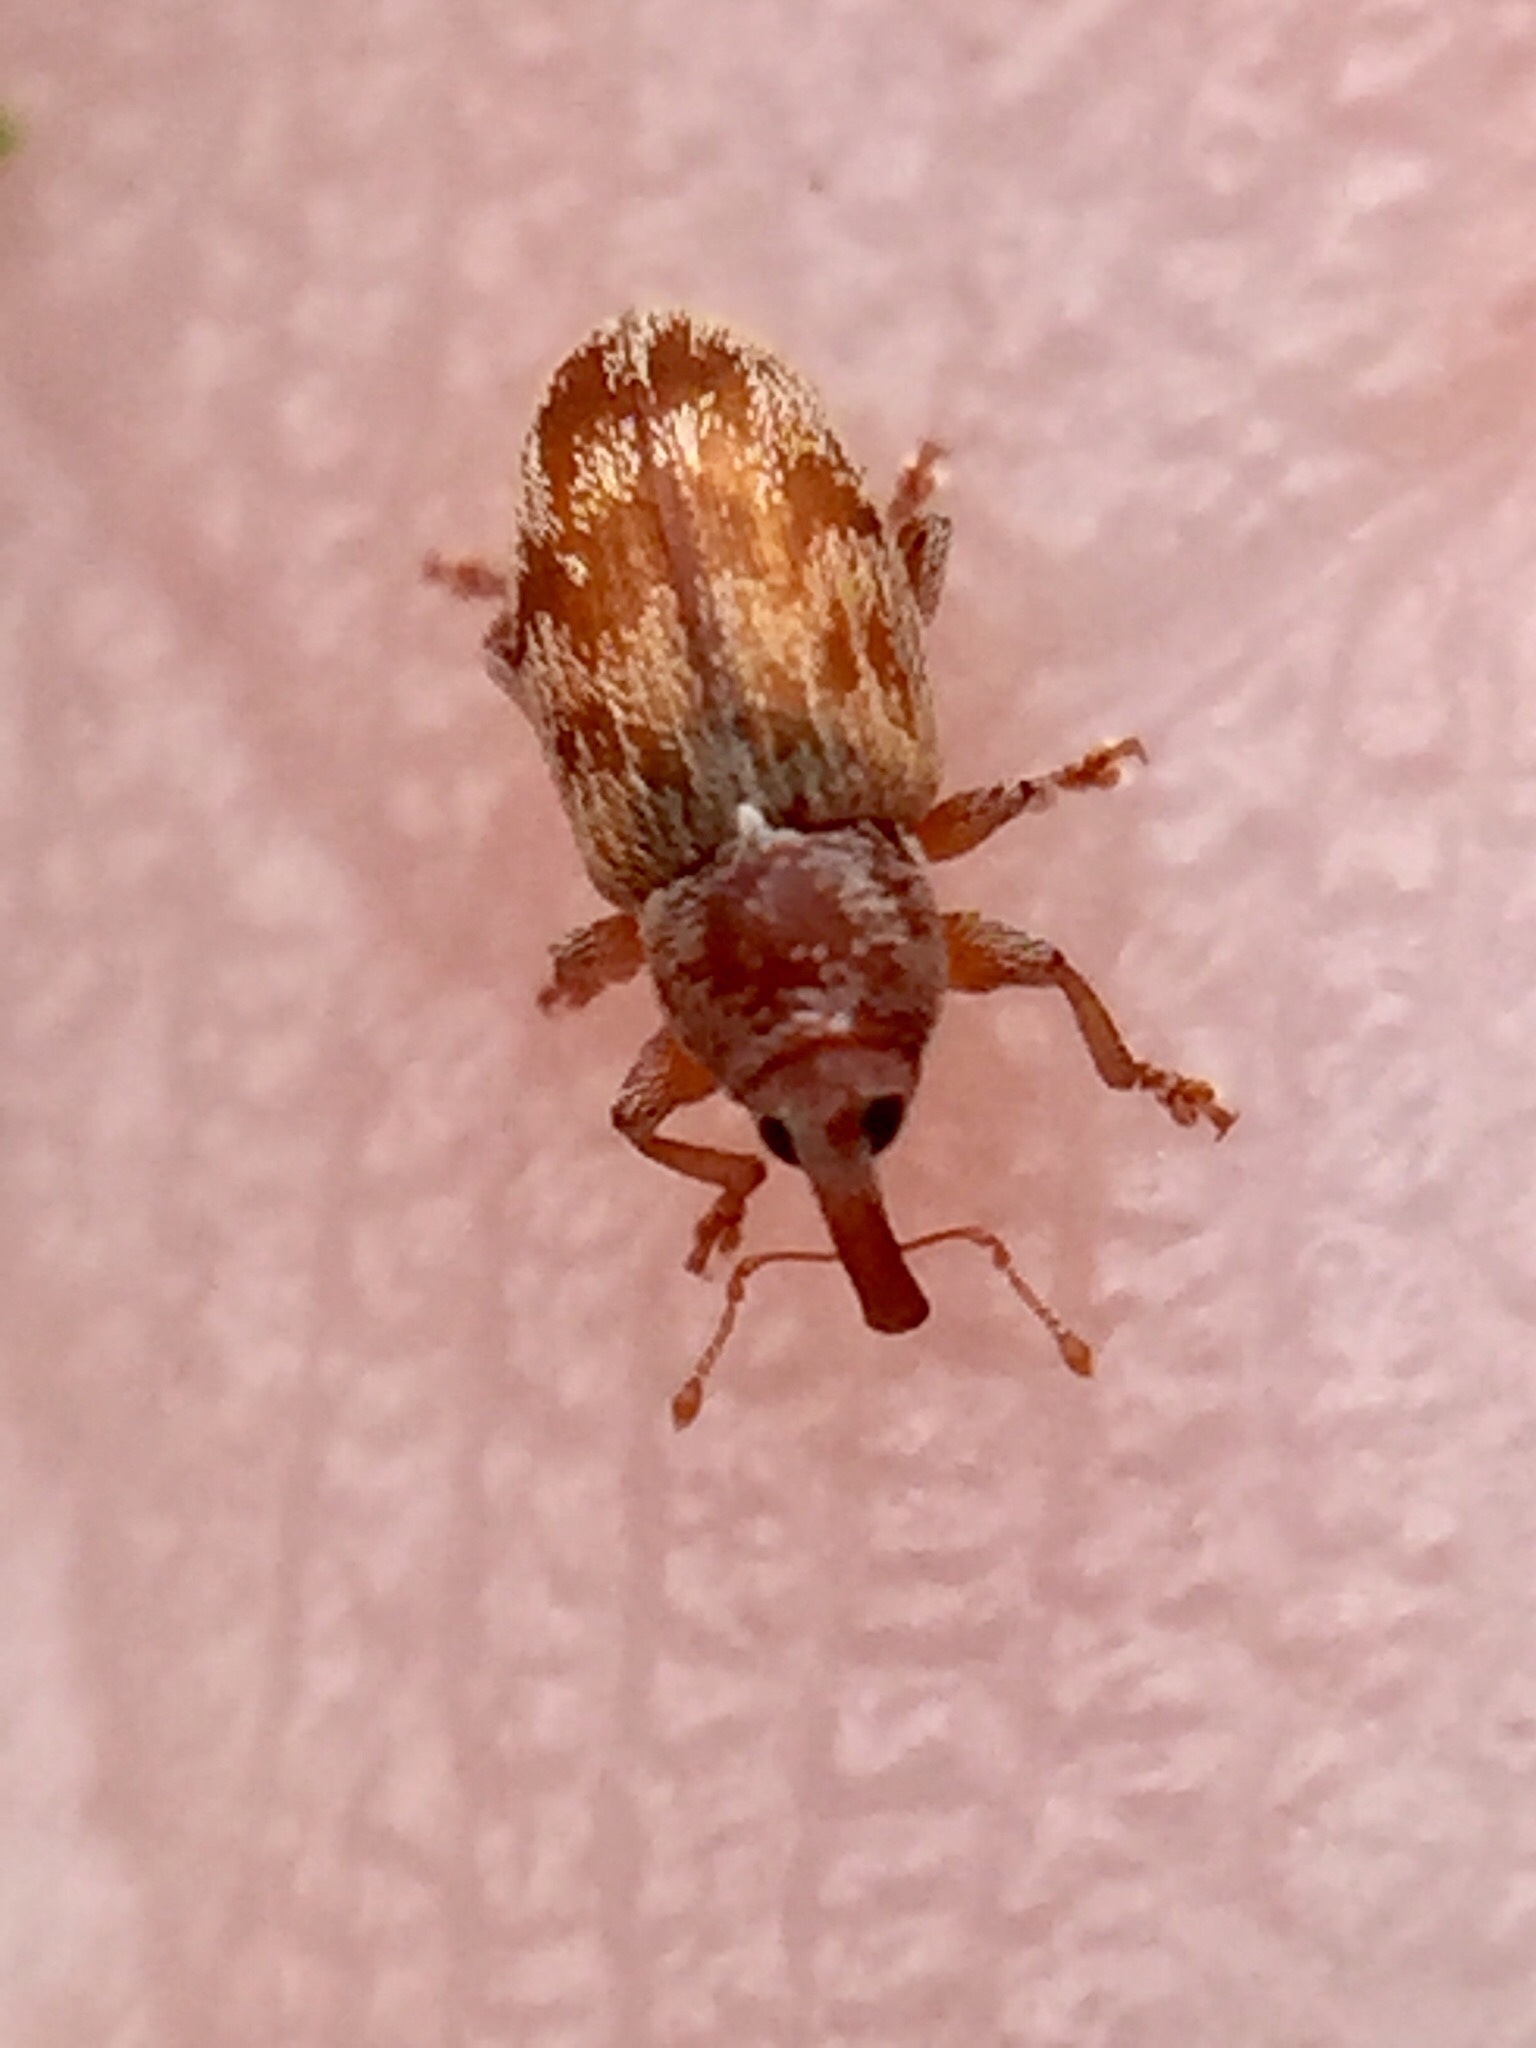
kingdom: Animalia
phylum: Arthropoda
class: Insecta
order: Coleoptera
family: Curculionidae
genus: Epamoebus
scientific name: Epamoebus ziczac
